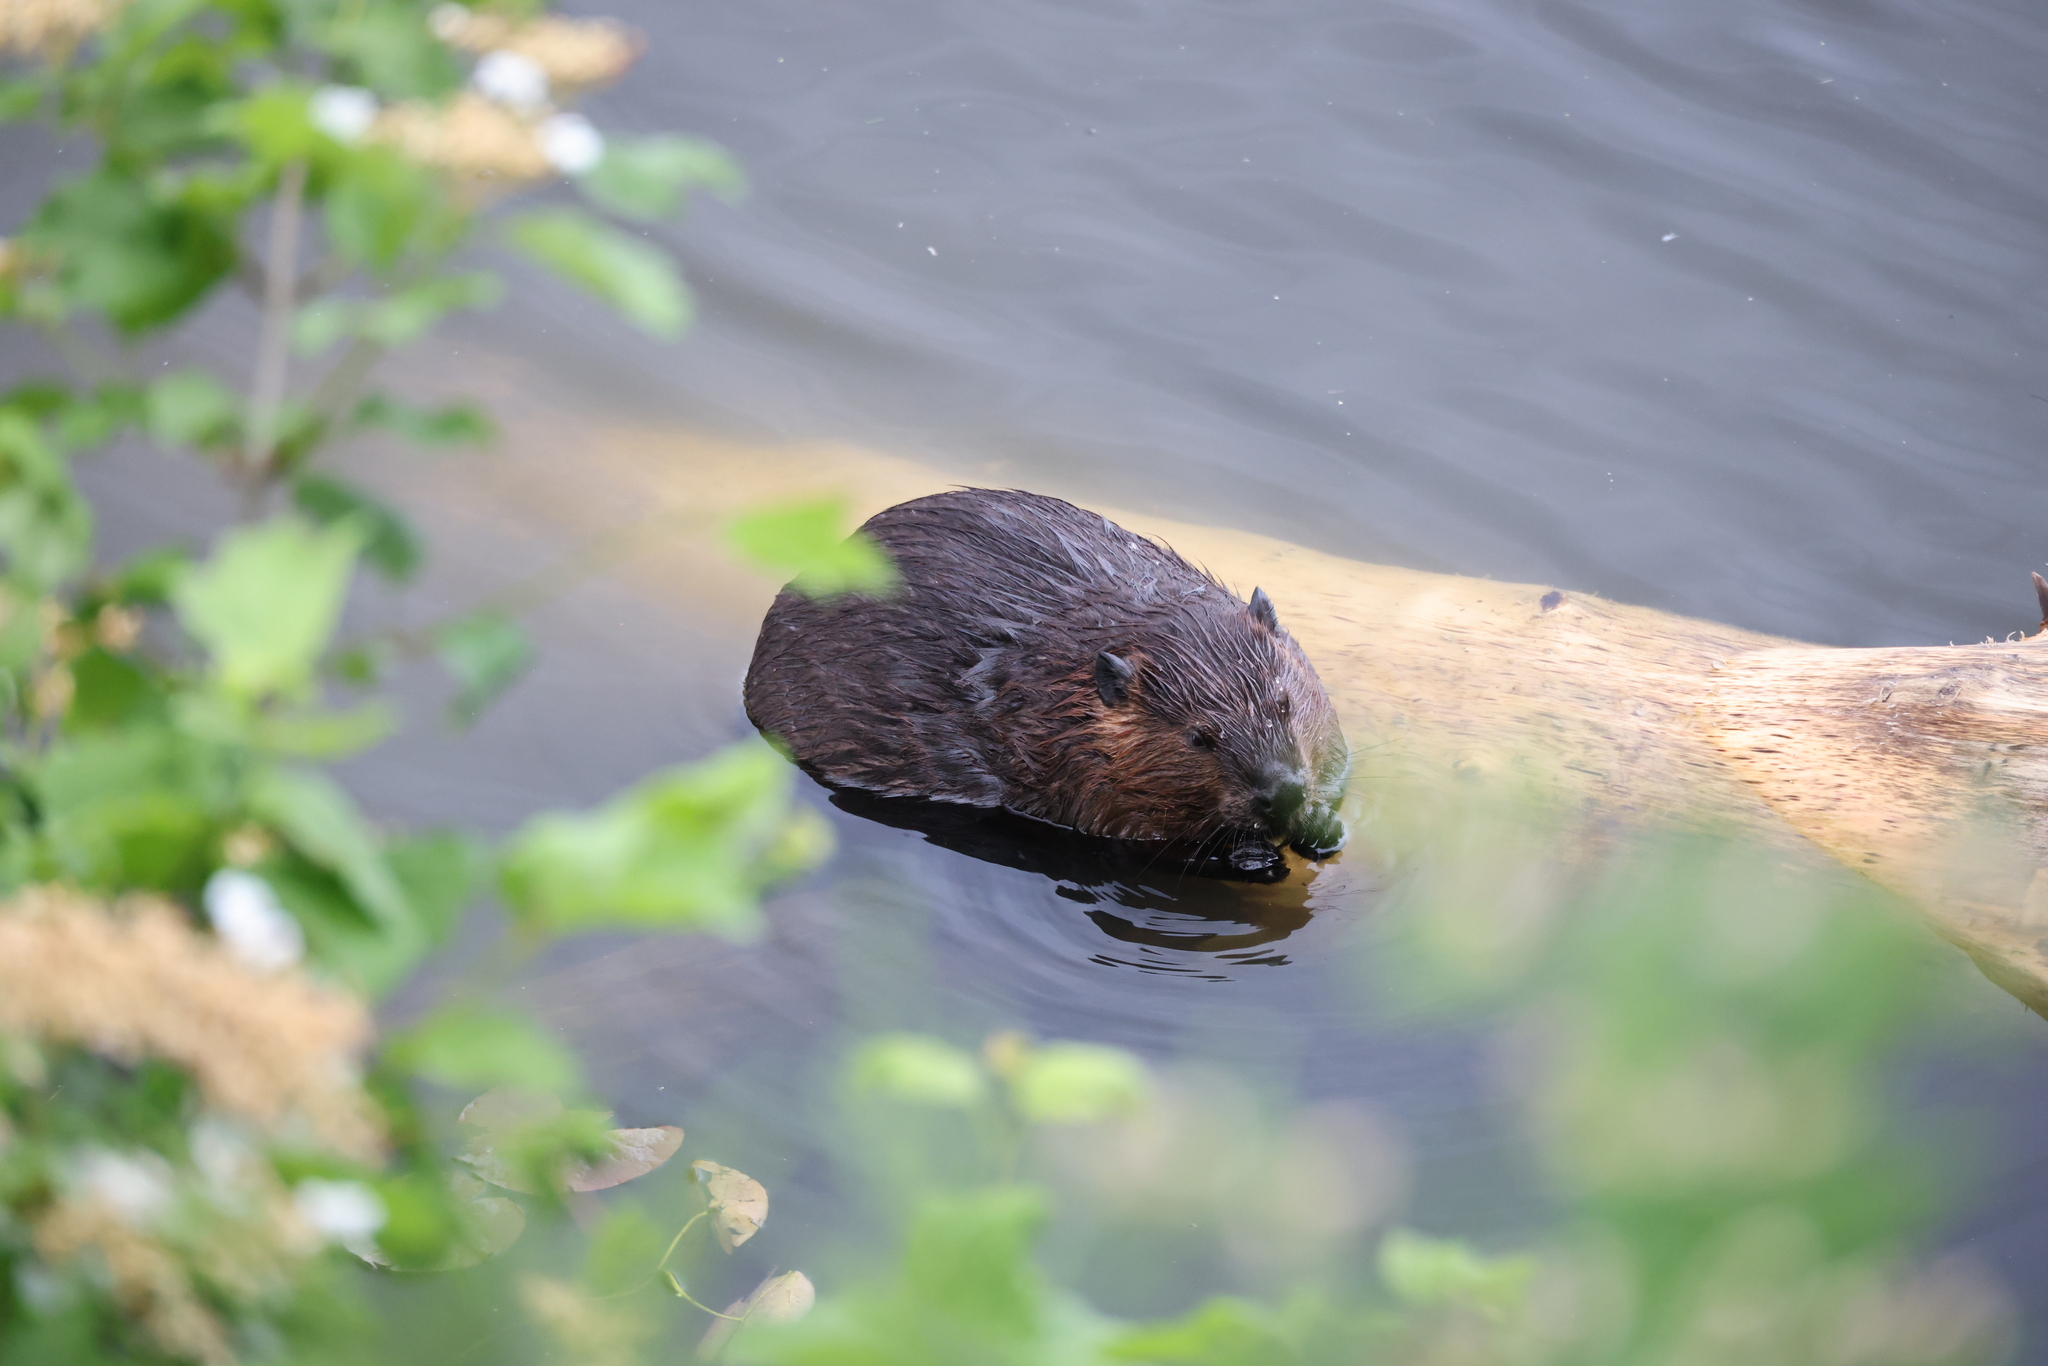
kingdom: Animalia
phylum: Chordata
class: Mammalia
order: Rodentia
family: Castoridae
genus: Castor
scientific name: Castor canadensis
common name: American beaver
